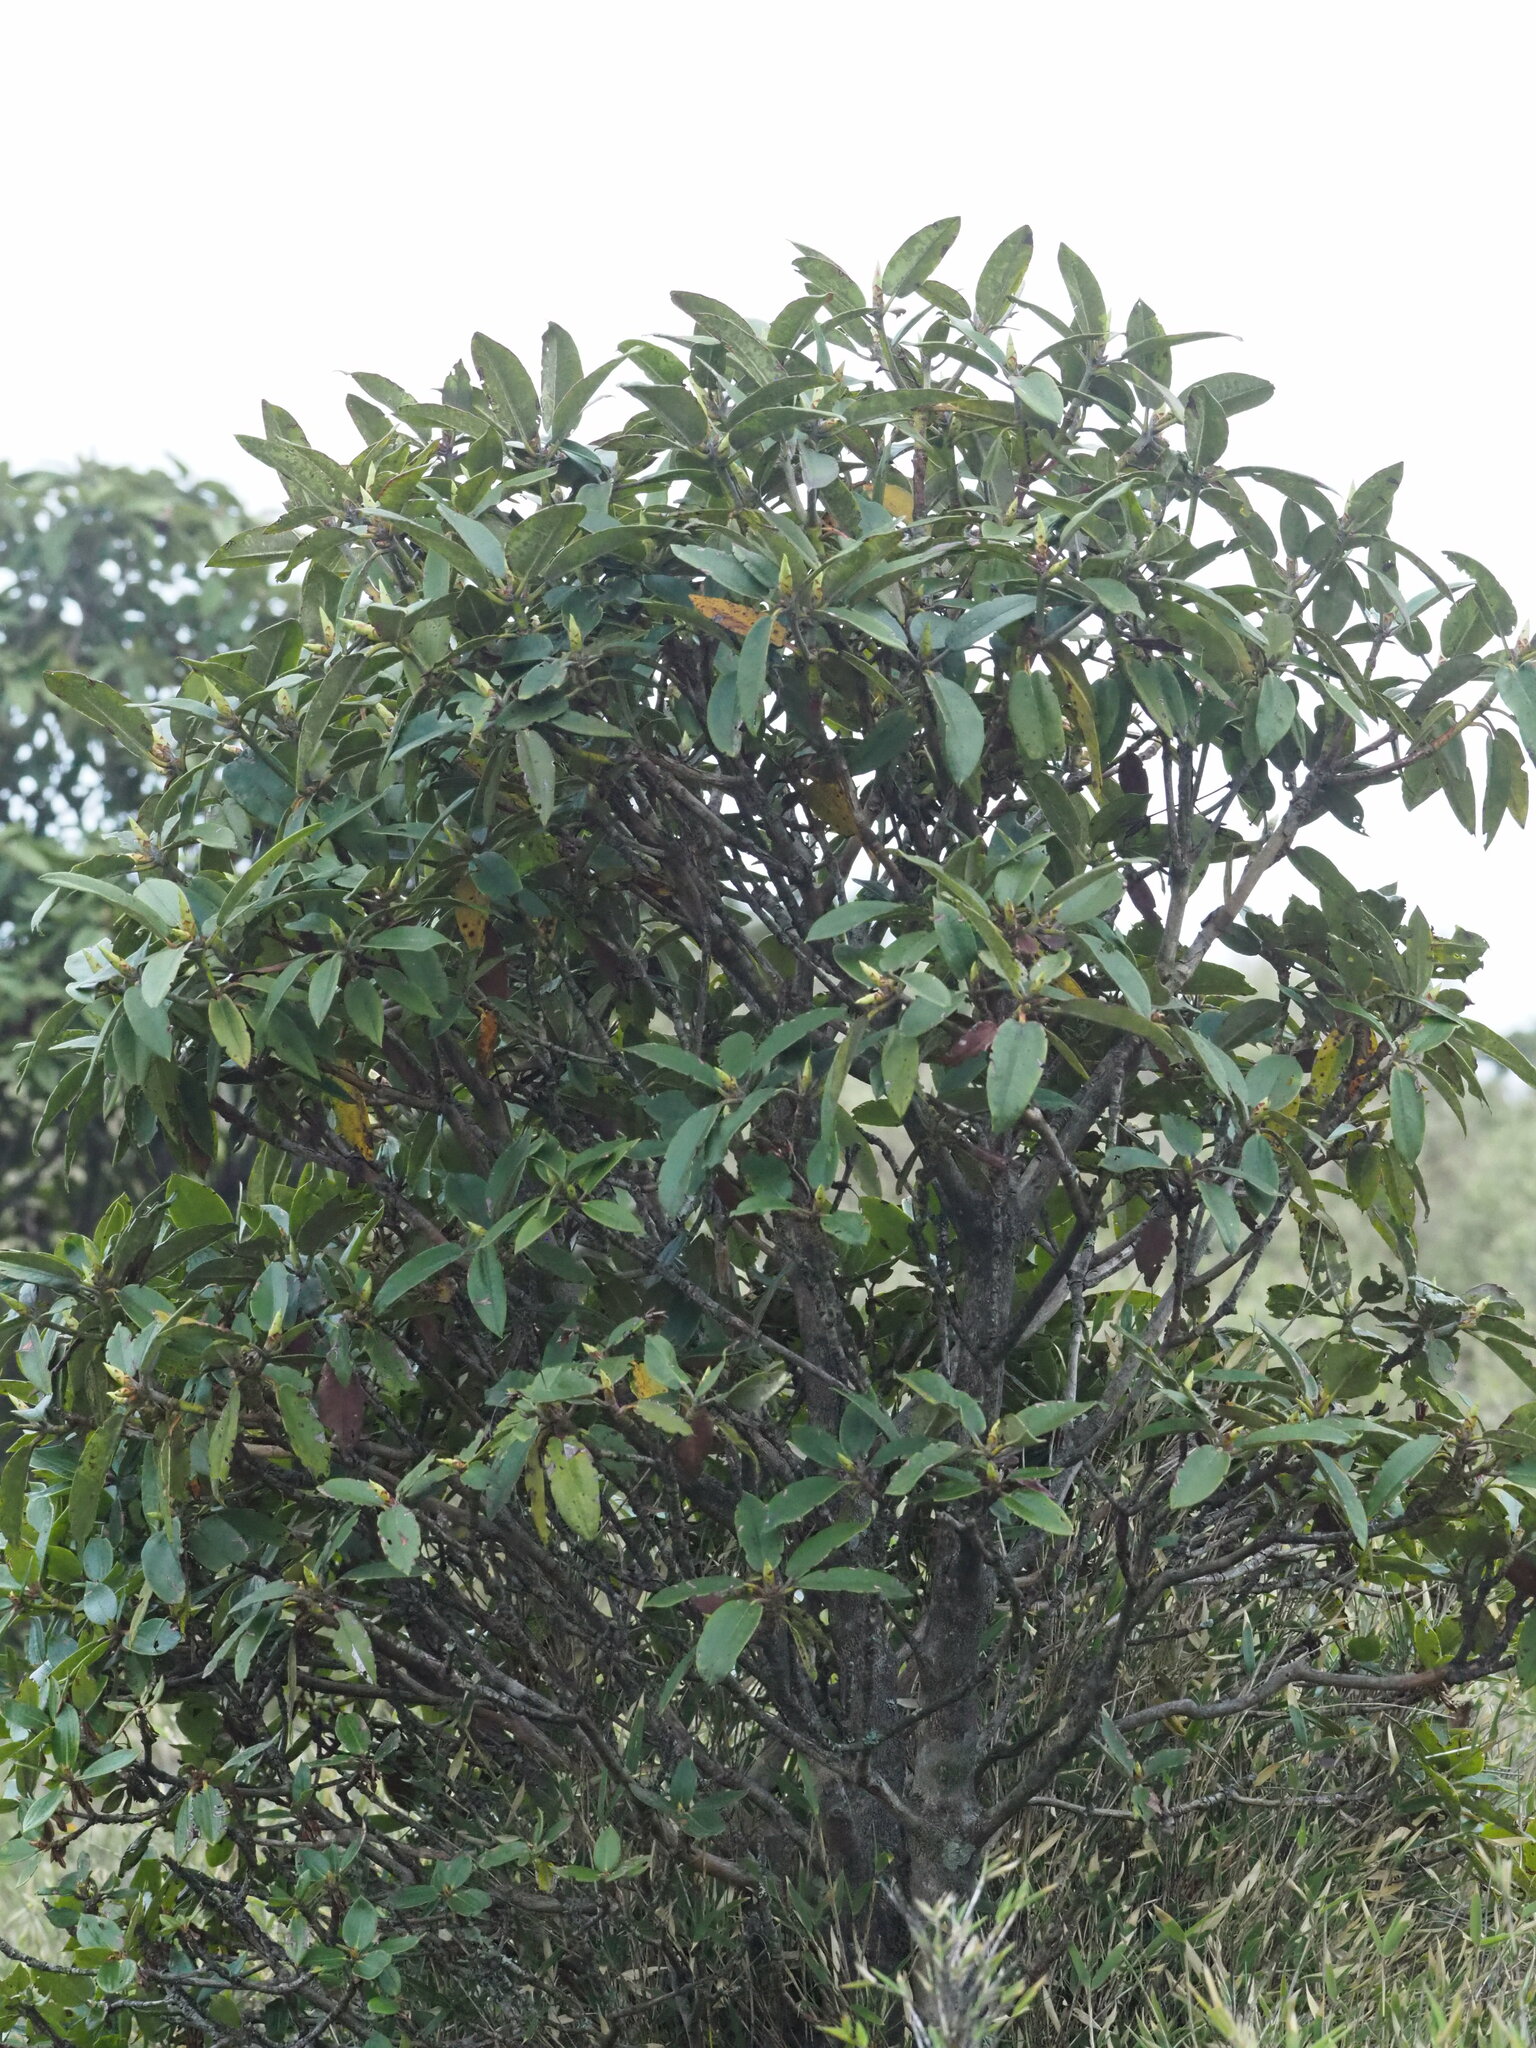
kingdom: Plantae
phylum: Tracheophyta
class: Magnoliopsida
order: Ericales
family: Ericaceae
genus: Rhododendron
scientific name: Rhododendron pseudochrysanthum
